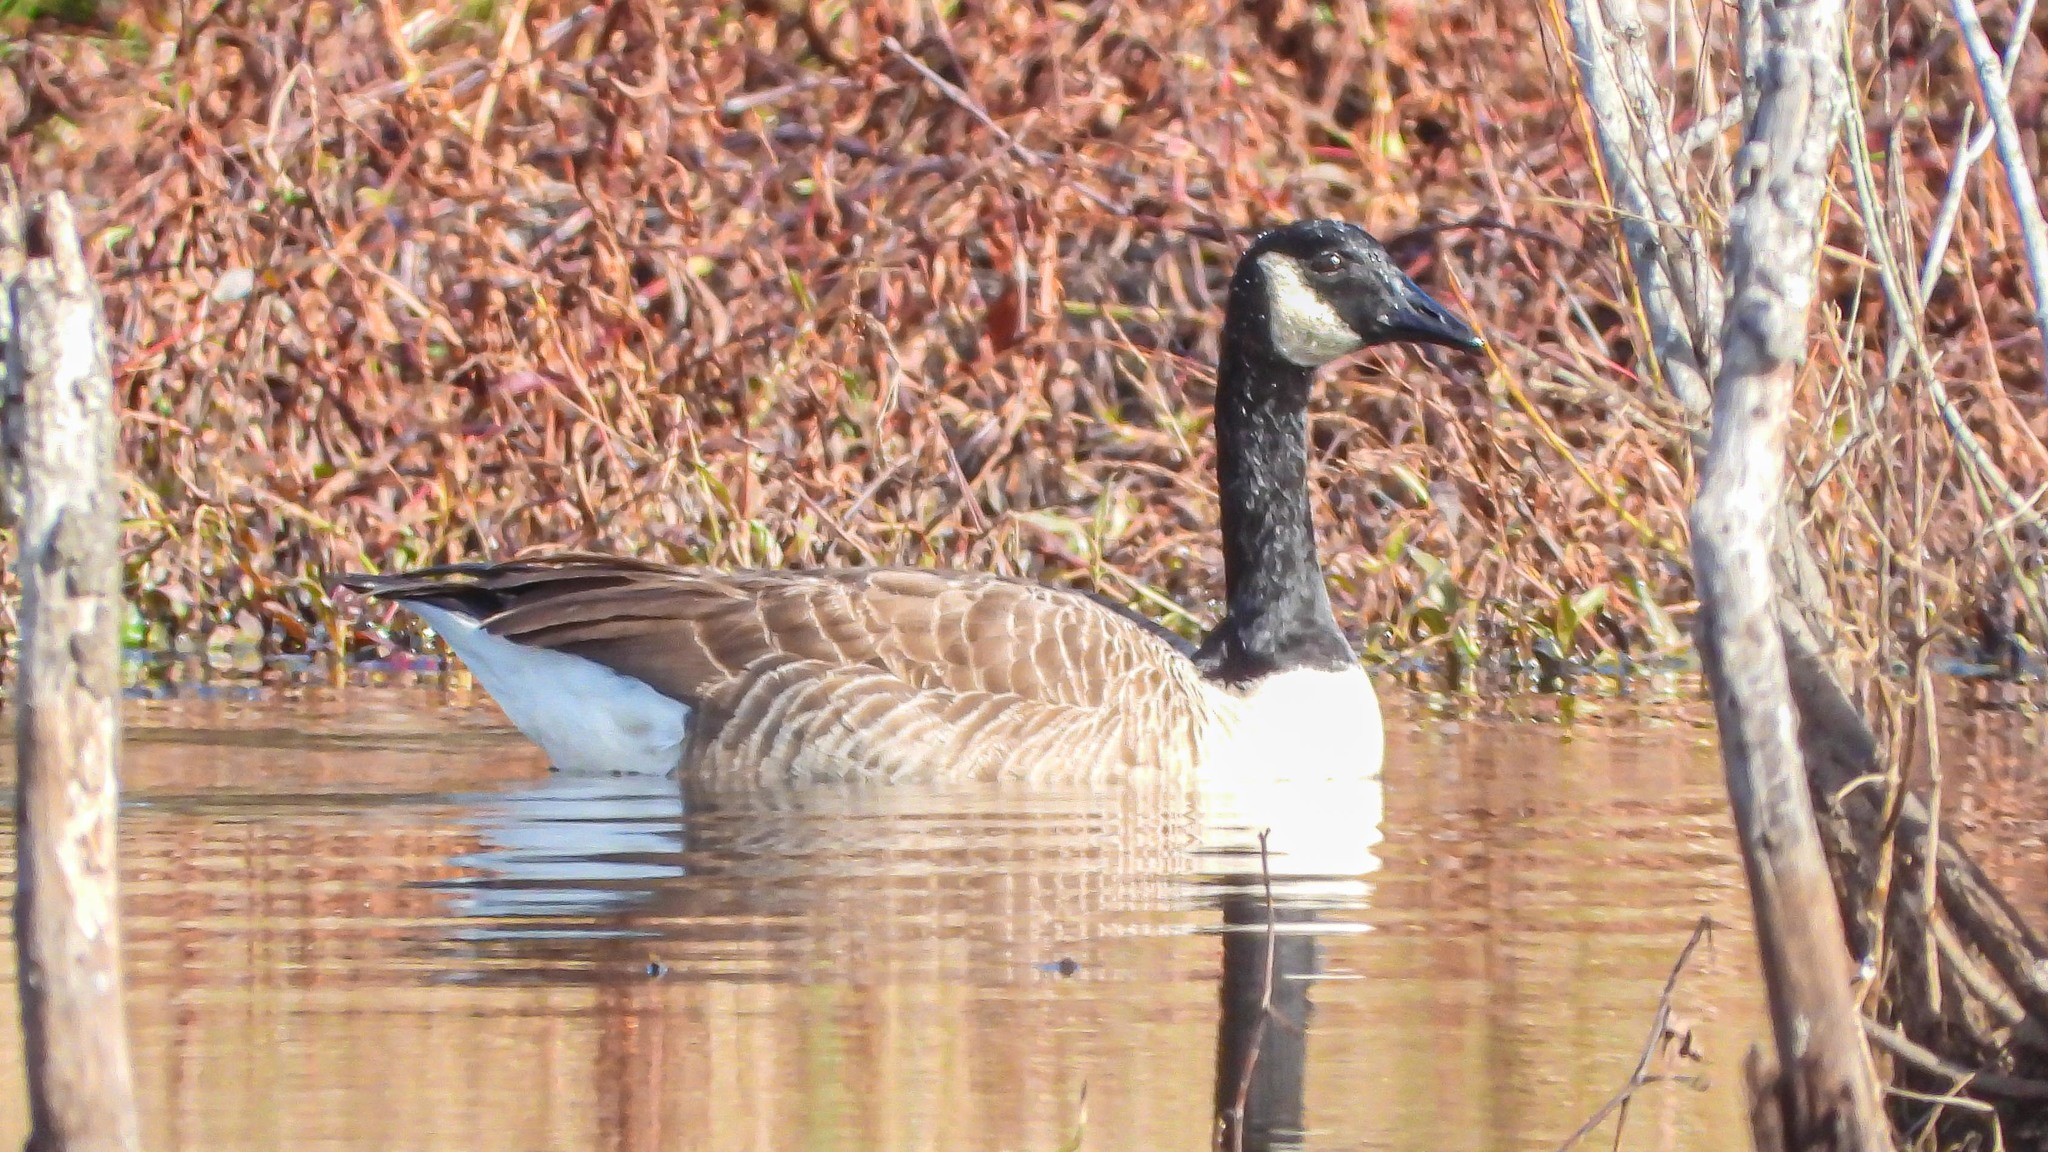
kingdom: Animalia
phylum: Chordata
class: Aves
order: Anseriformes
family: Anatidae
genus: Branta
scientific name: Branta canadensis
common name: Canada goose
